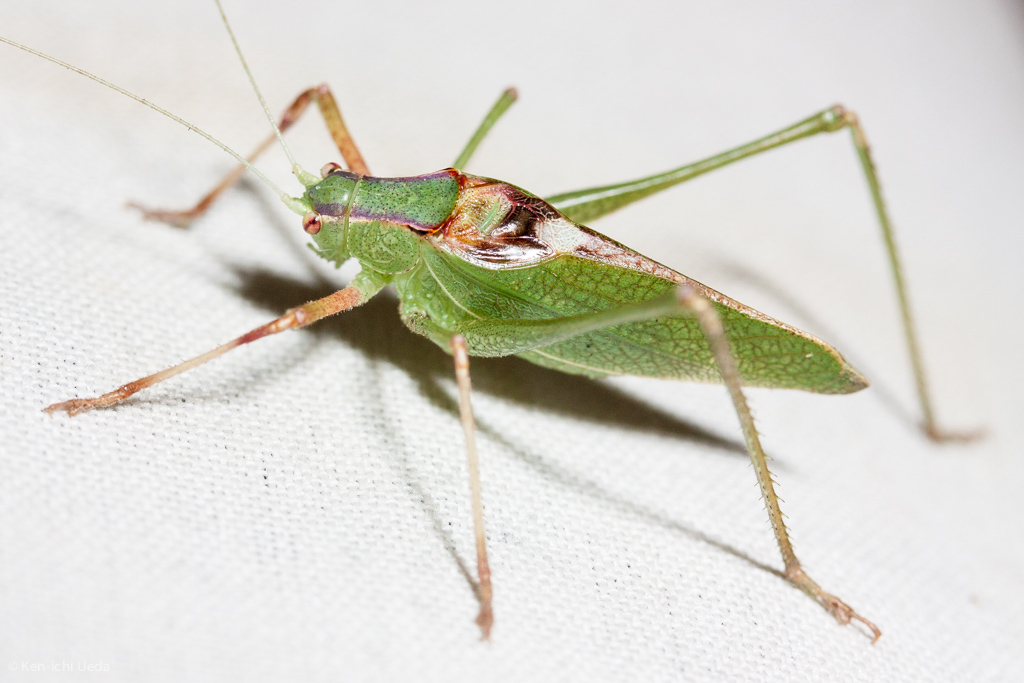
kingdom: Animalia
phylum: Arthropoda
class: Insecta
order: Orthoptera
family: Tettigoniidae
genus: Platylyra
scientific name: Platylyra californica
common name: Chaparral false katydid
